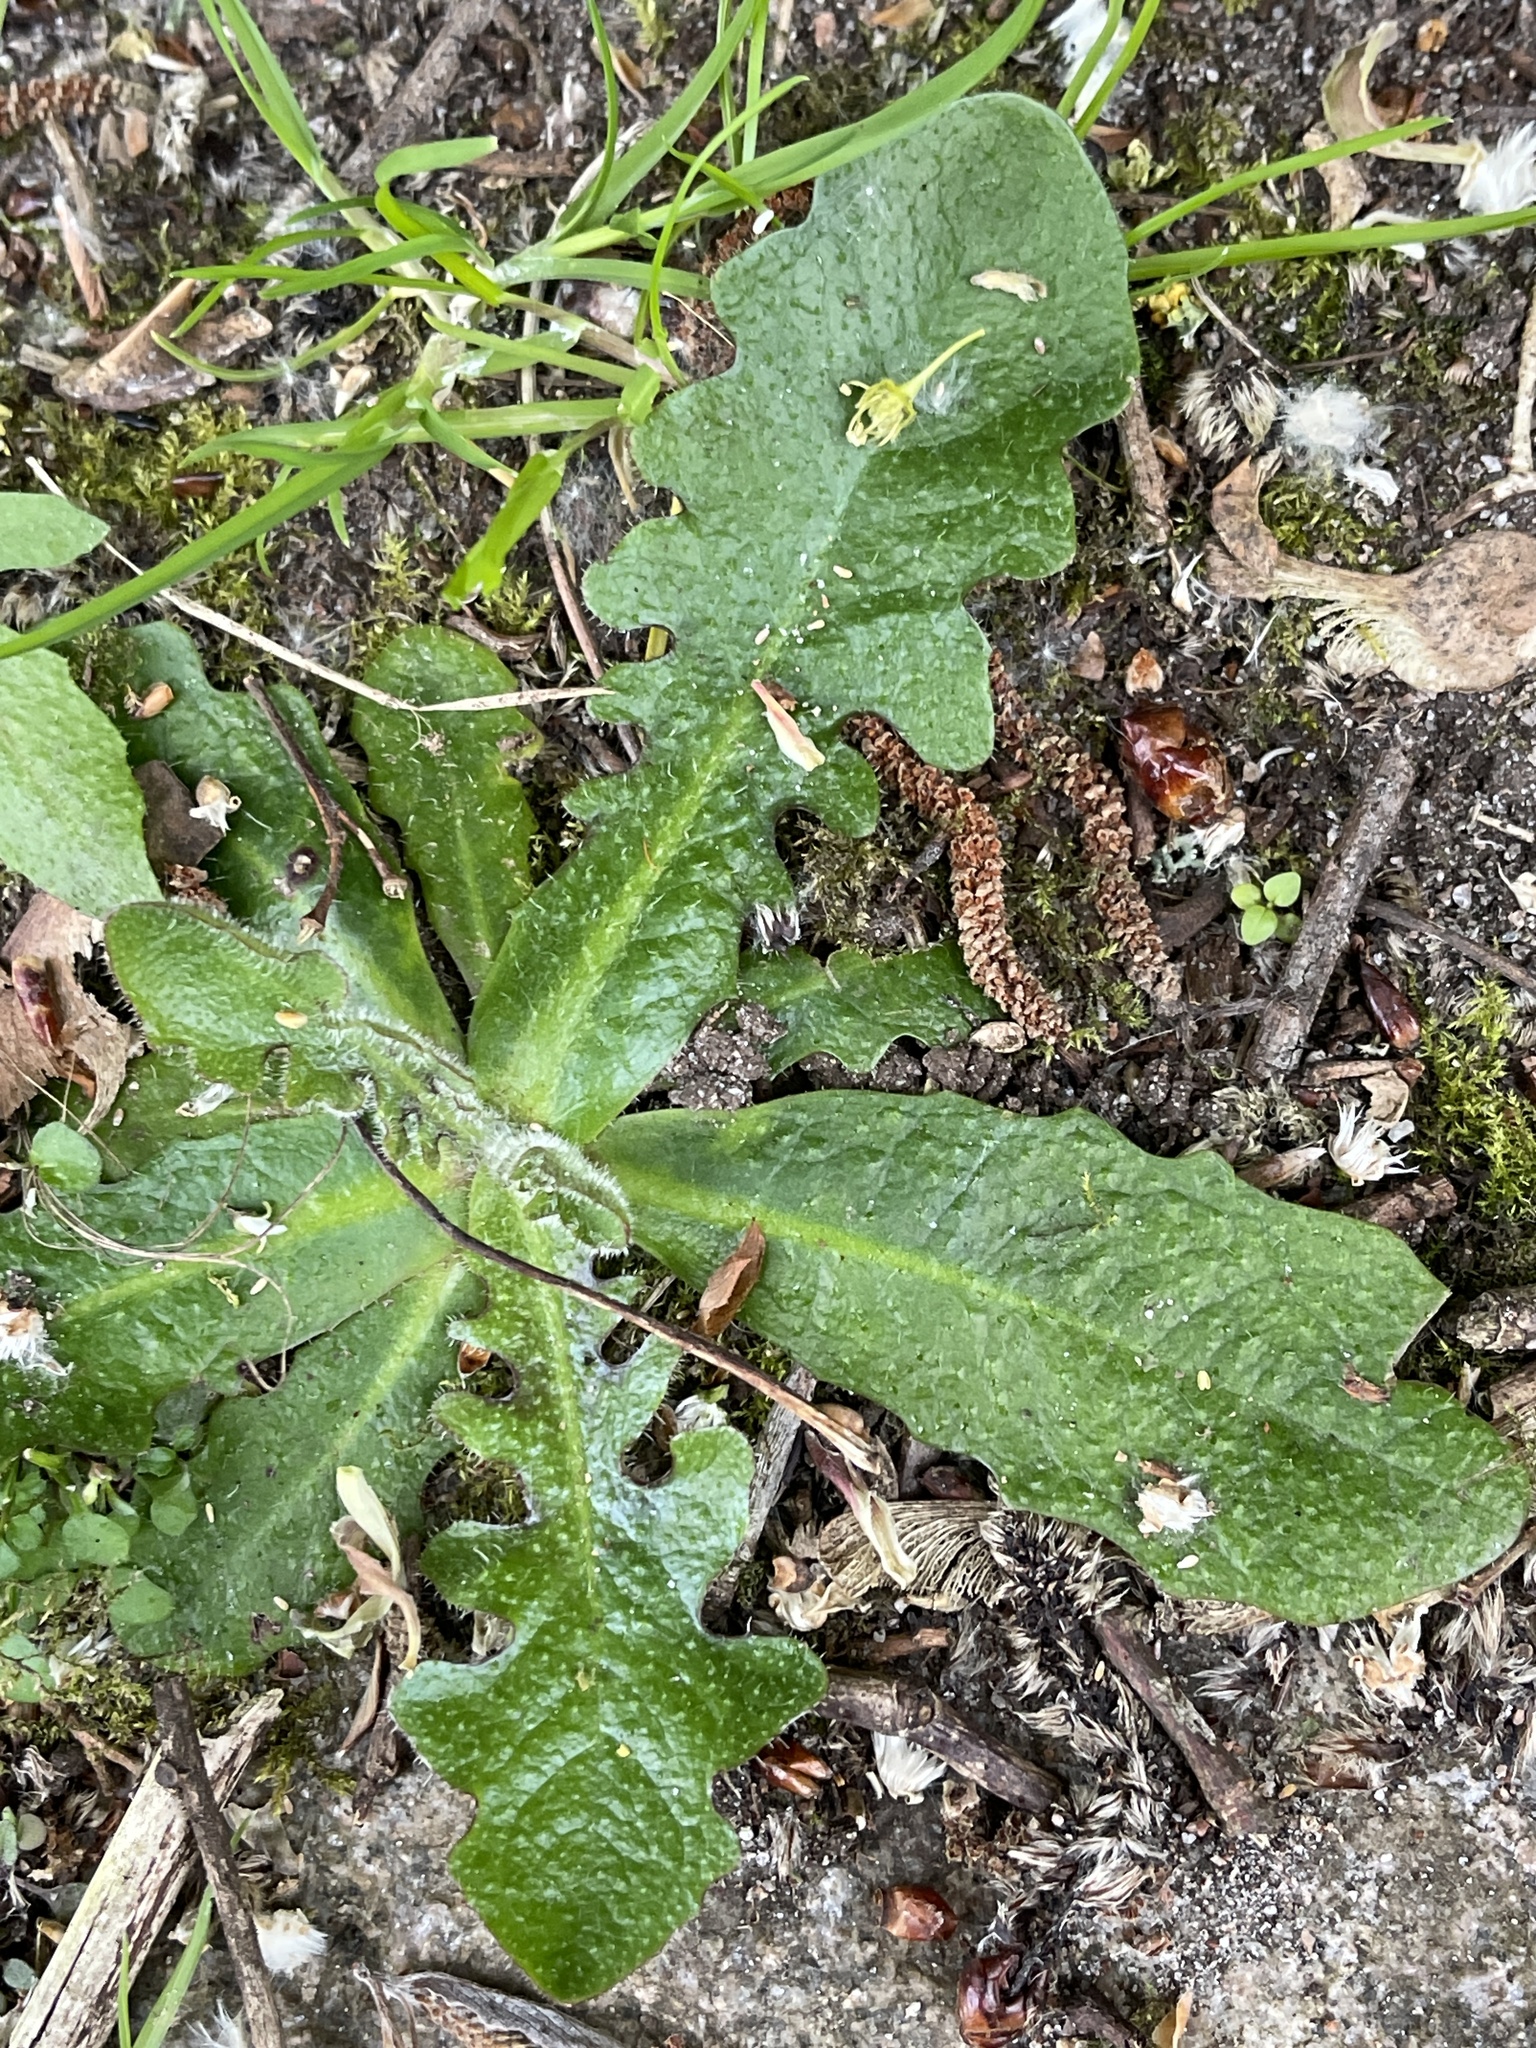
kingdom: Plantae
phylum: Tracheophyta
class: Magnoliopsida
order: Asterales
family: Asteraceae
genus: Hypochaeris
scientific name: Hypochaeris radicata
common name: Flatweed
